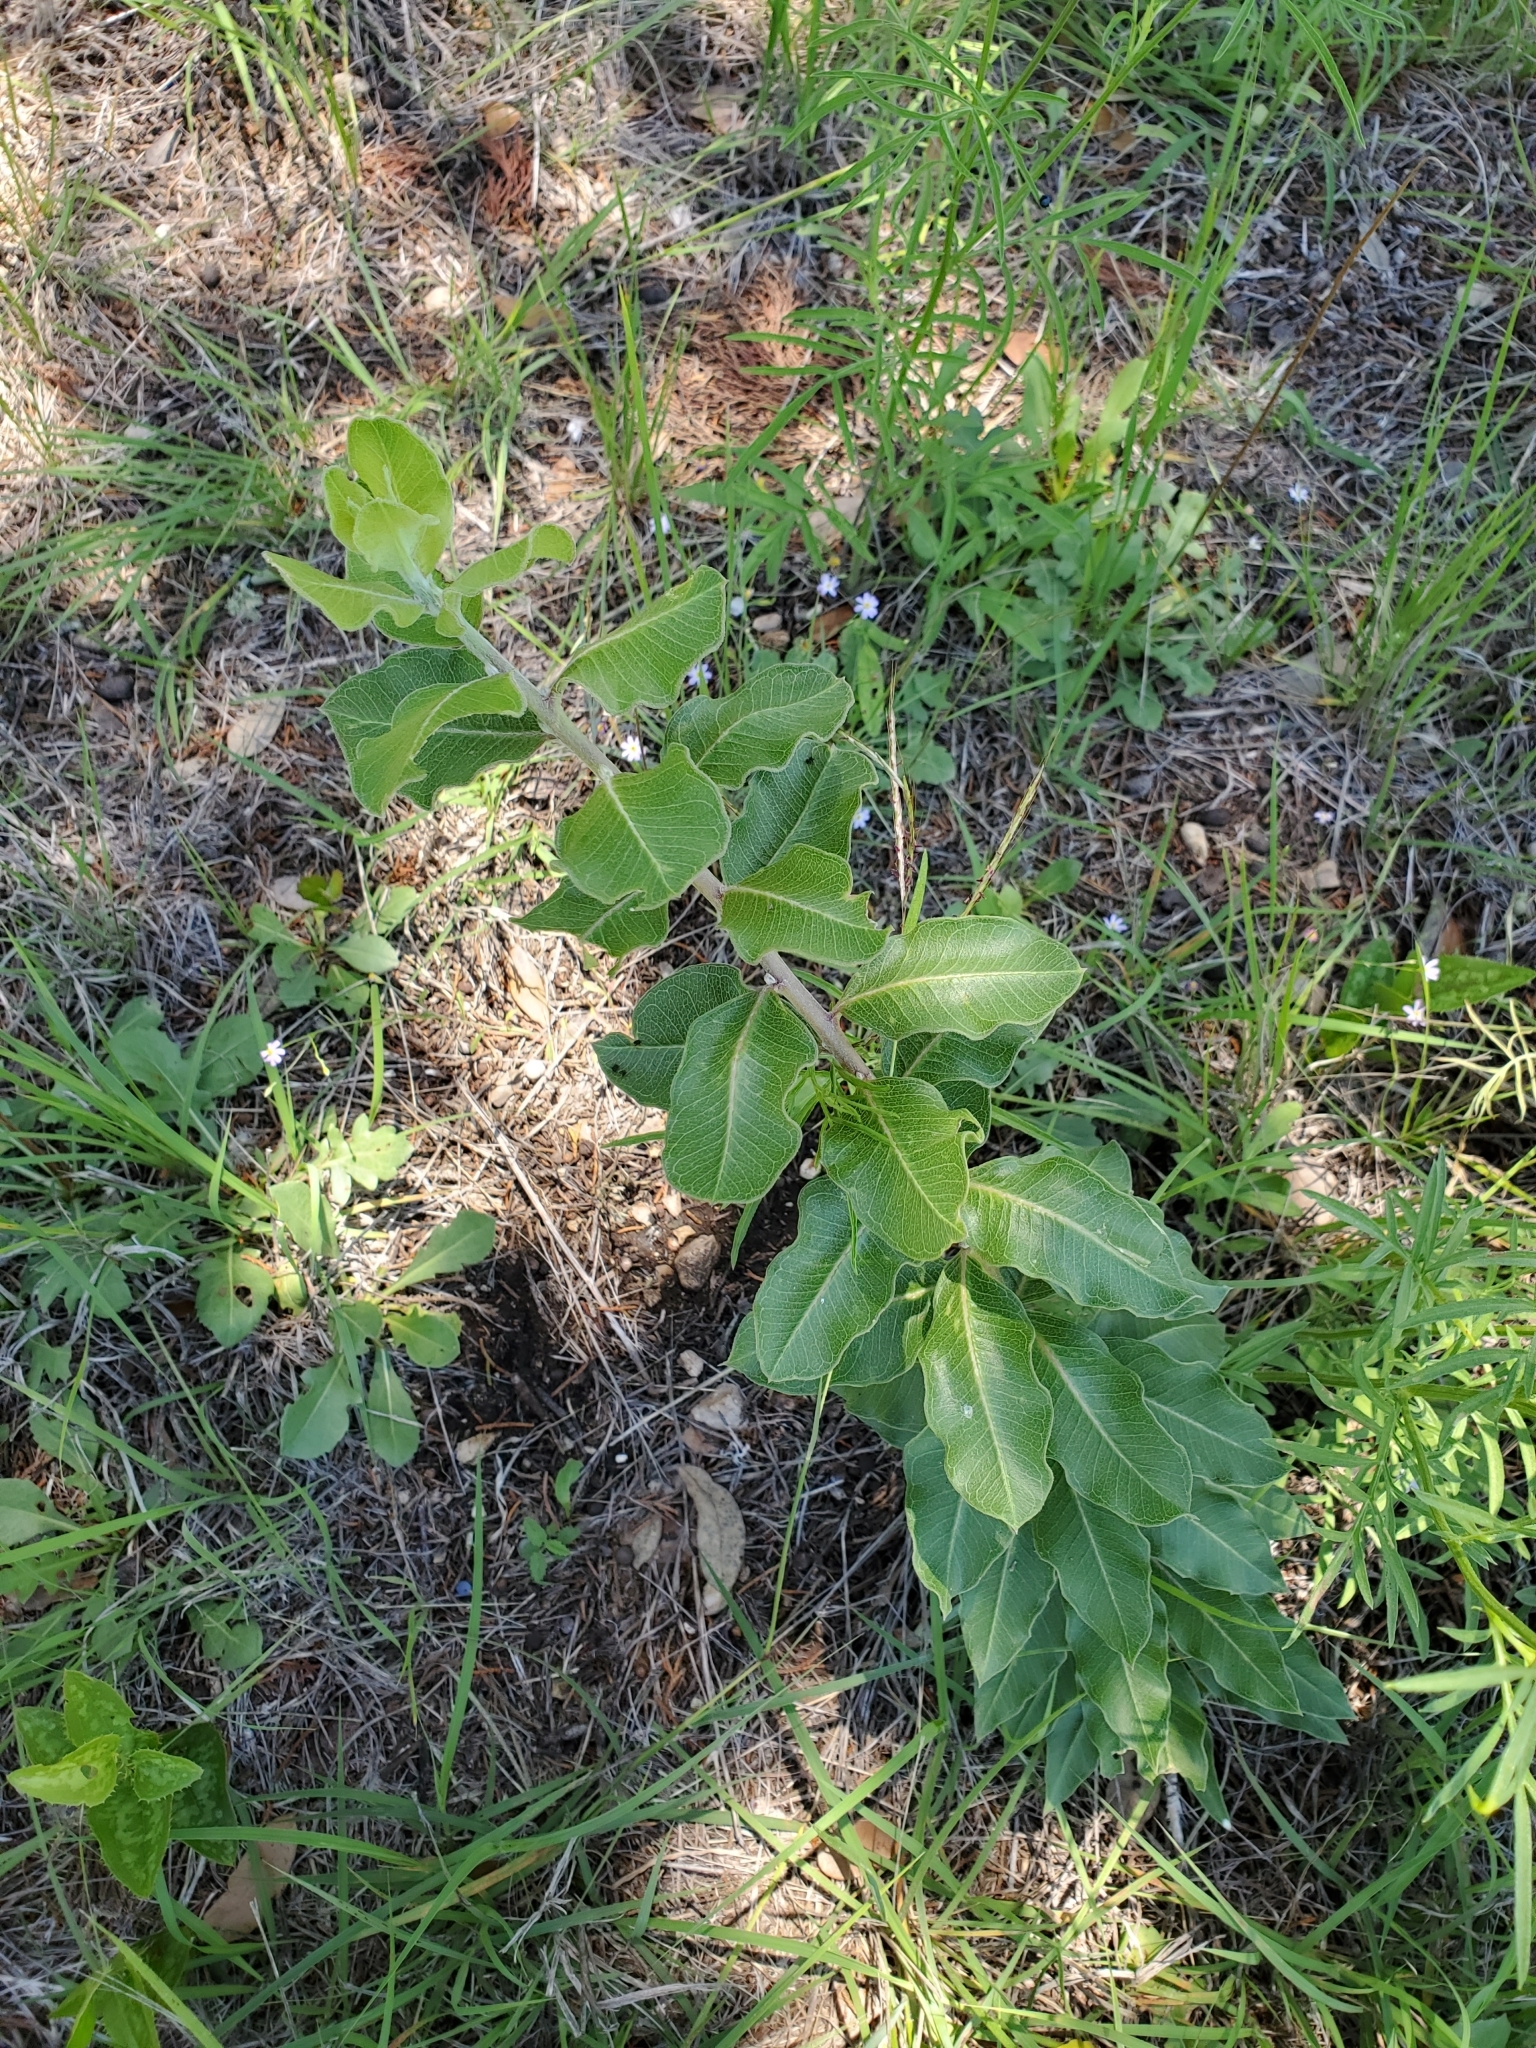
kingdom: Plantae
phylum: Tracheophyta
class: Magnoliopsida
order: Gentianales
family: Apocynaceae
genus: Asclepias
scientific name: Asclepias viridiflora
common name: Green comet milkweed
